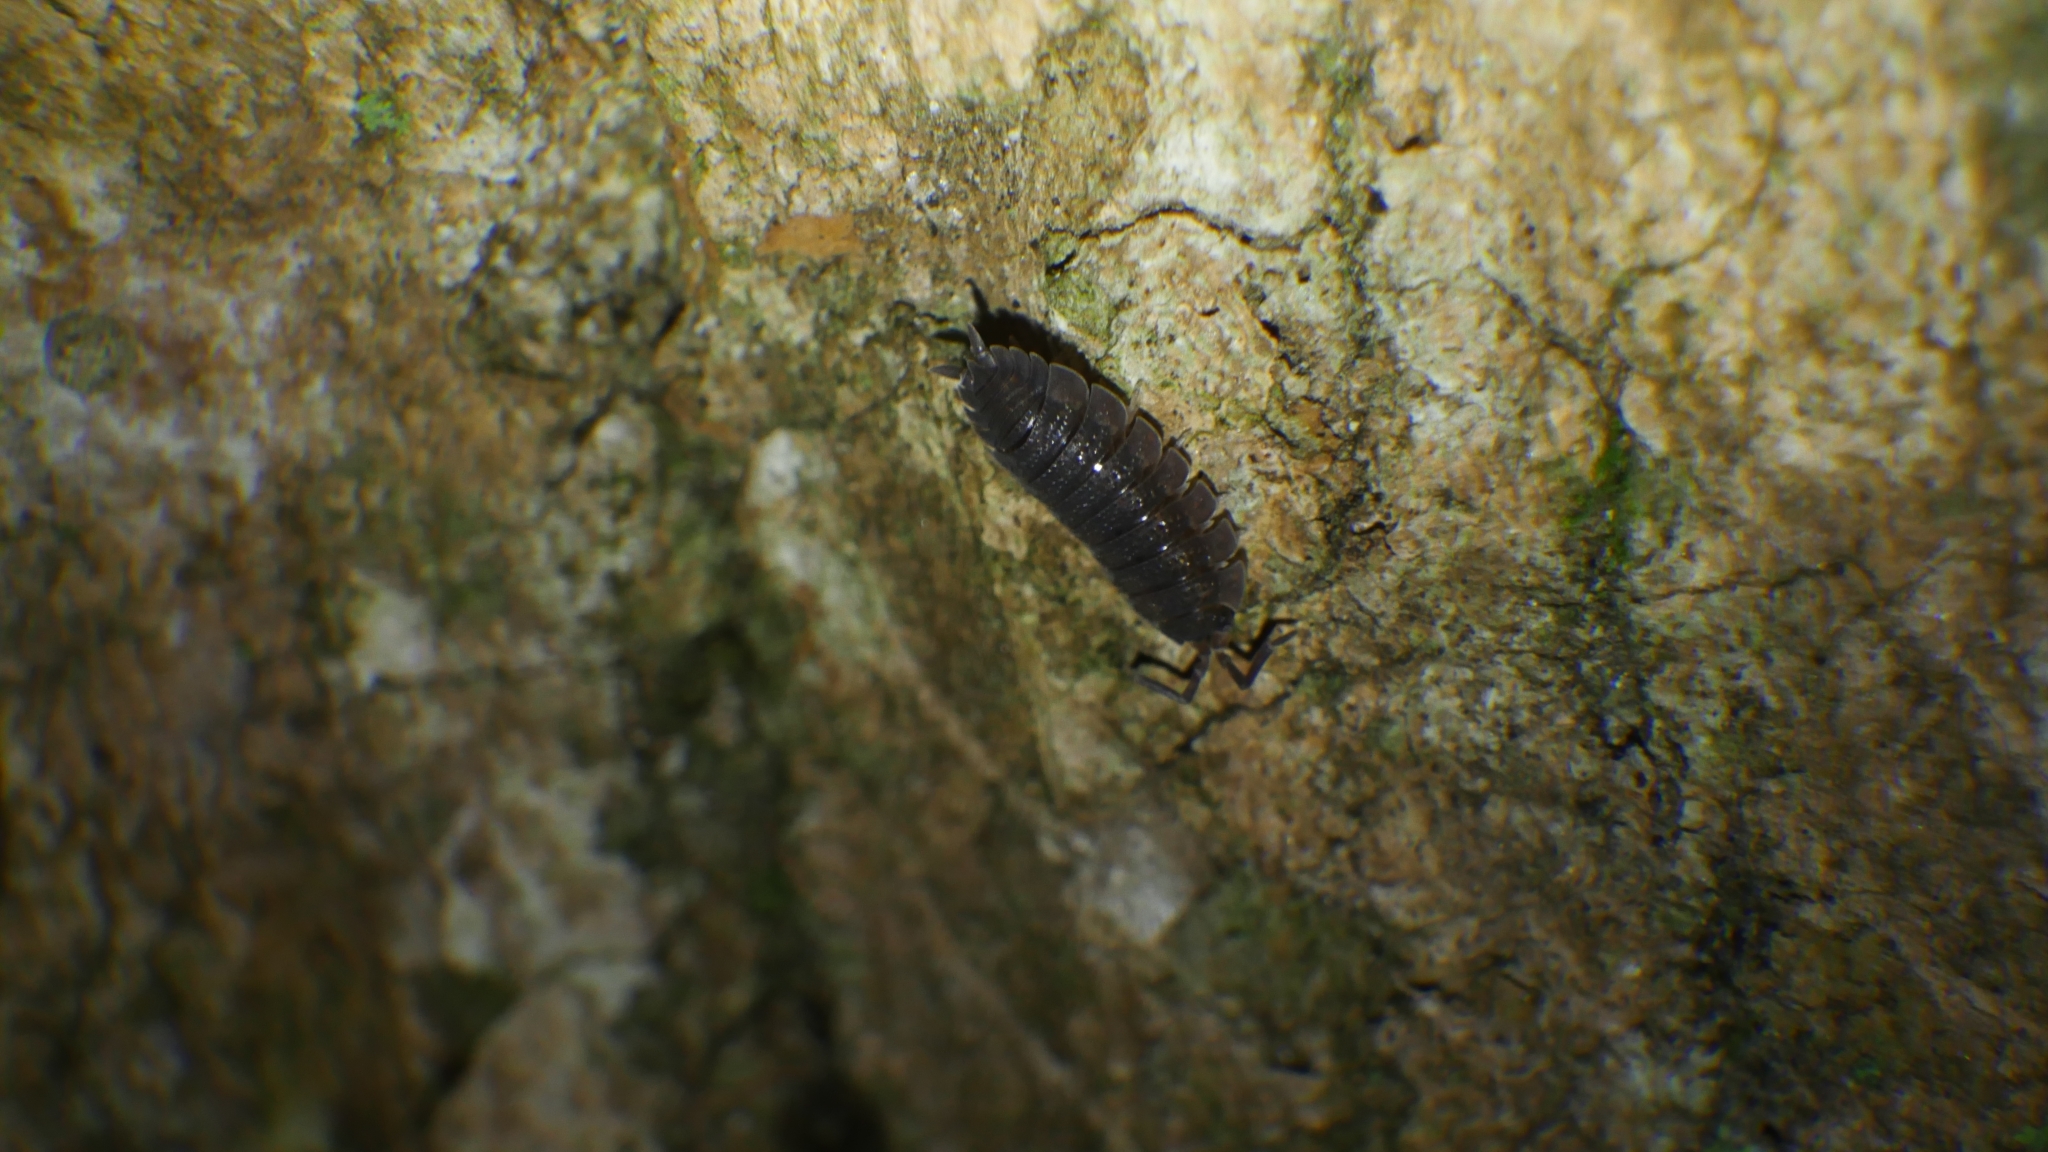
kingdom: Animalia
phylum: Arthropoda
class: Malacostraca
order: Isopoda
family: Porcellionidae
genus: Porcellio
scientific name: Porcellio scaber
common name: Common rough woodlouse
